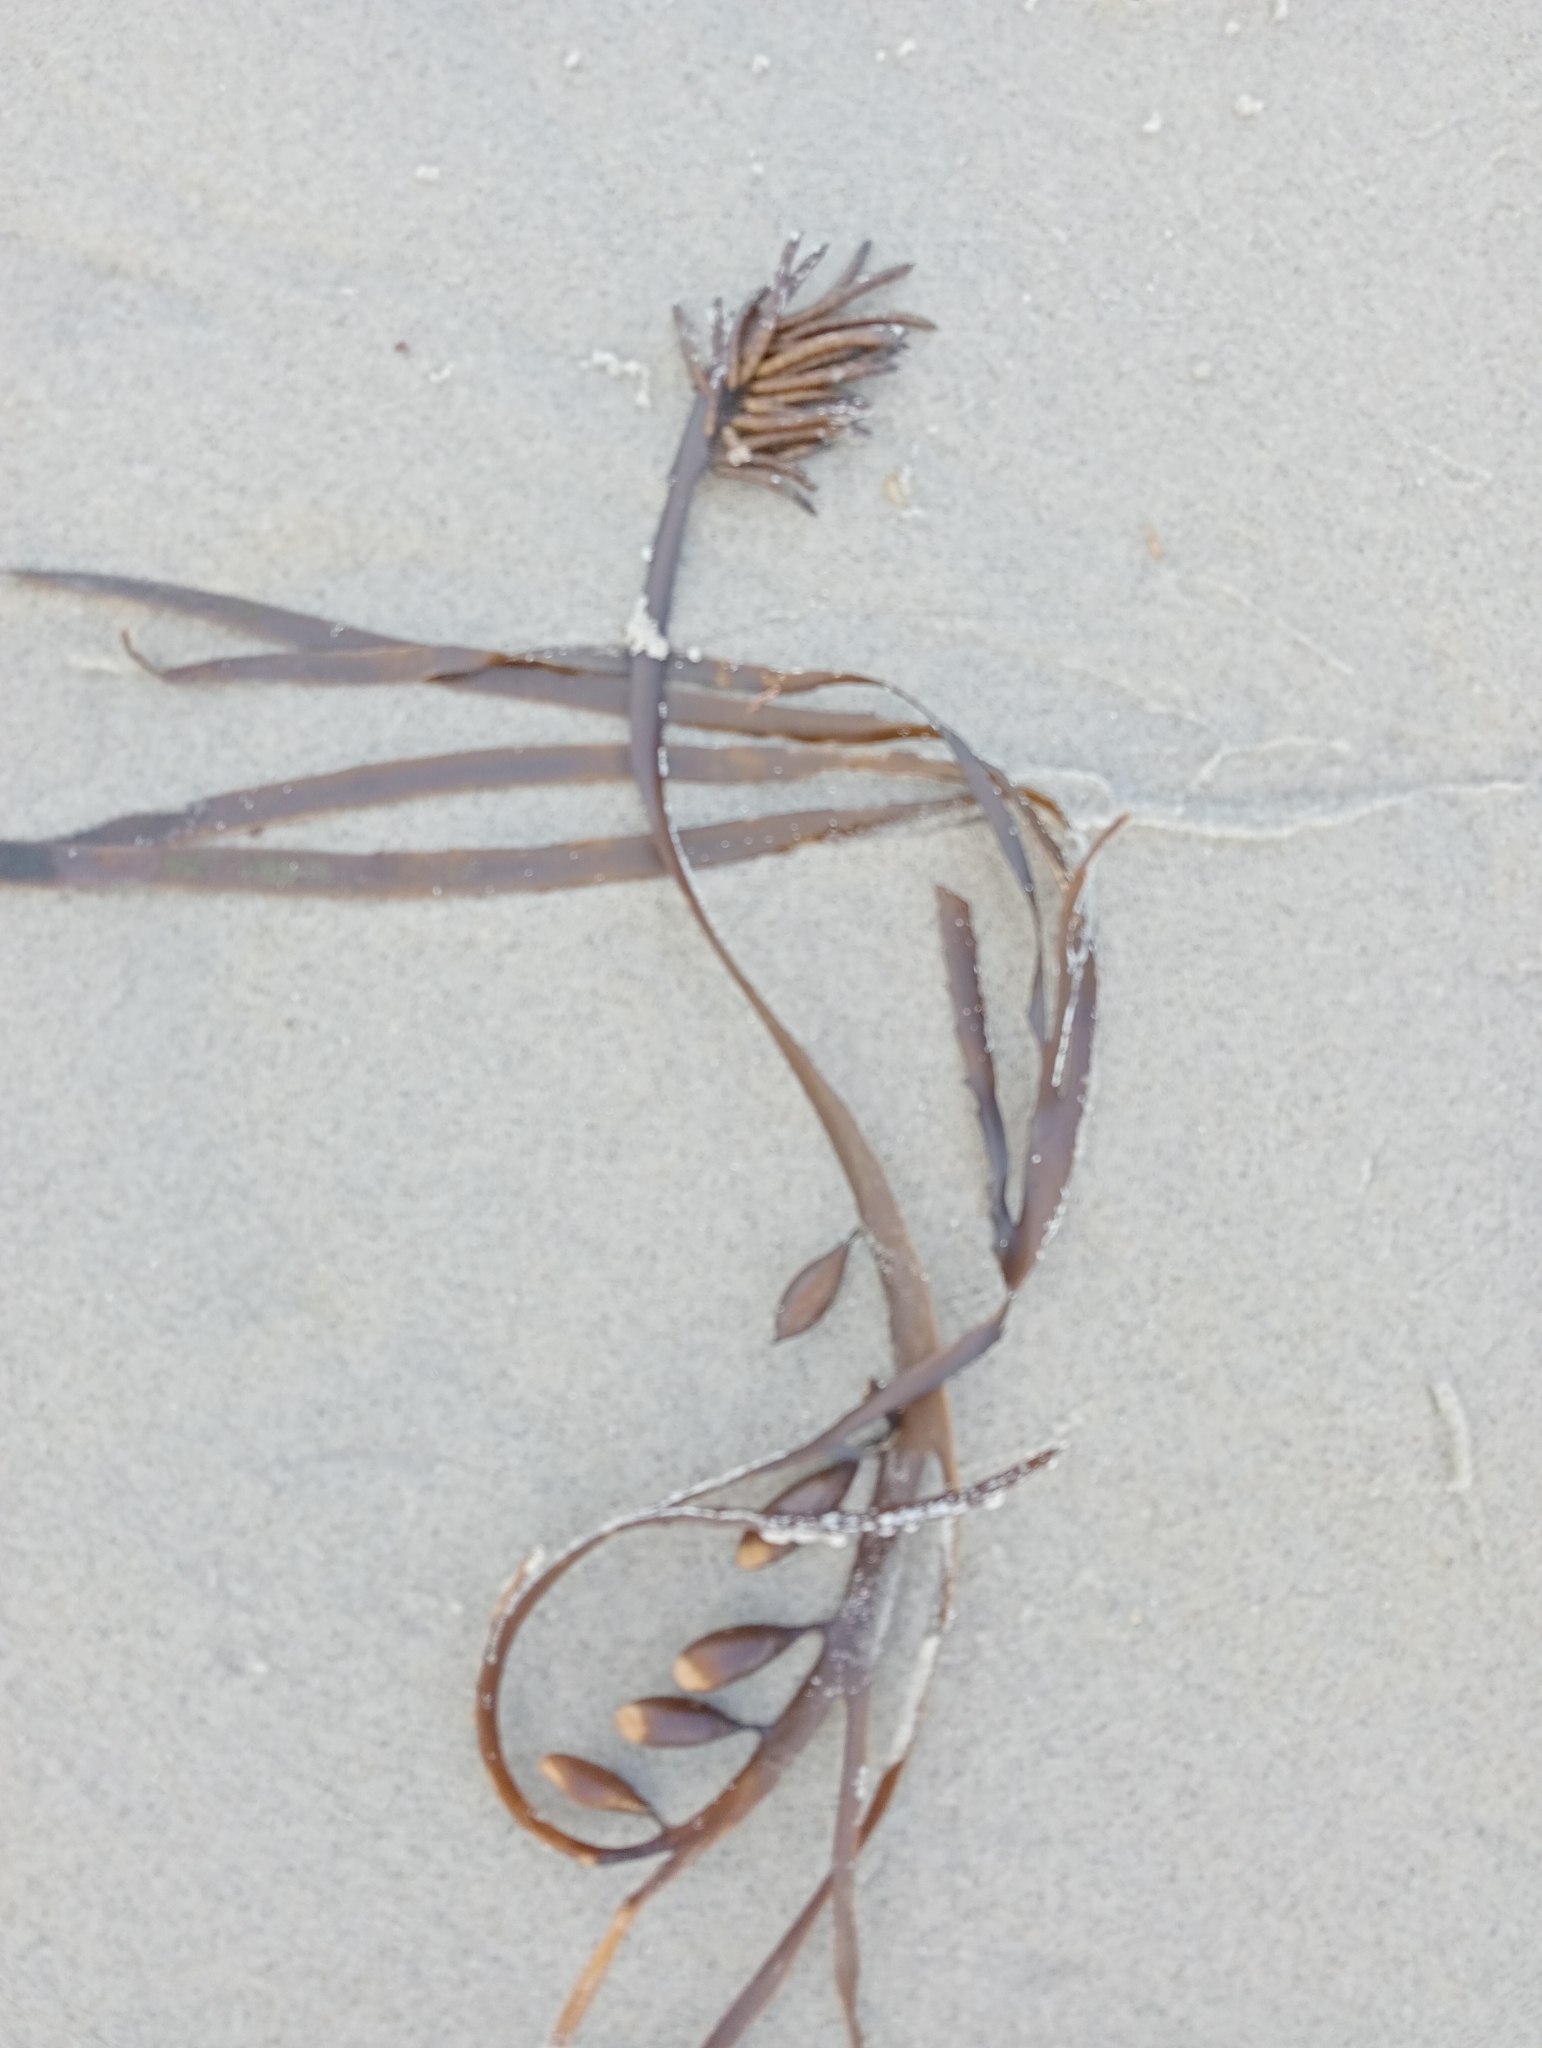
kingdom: Chromista
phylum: Ochrophyta
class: Phaeophyceae
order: Fucales
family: Seirococcaceae
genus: Marginariella
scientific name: Marginariella boryana
